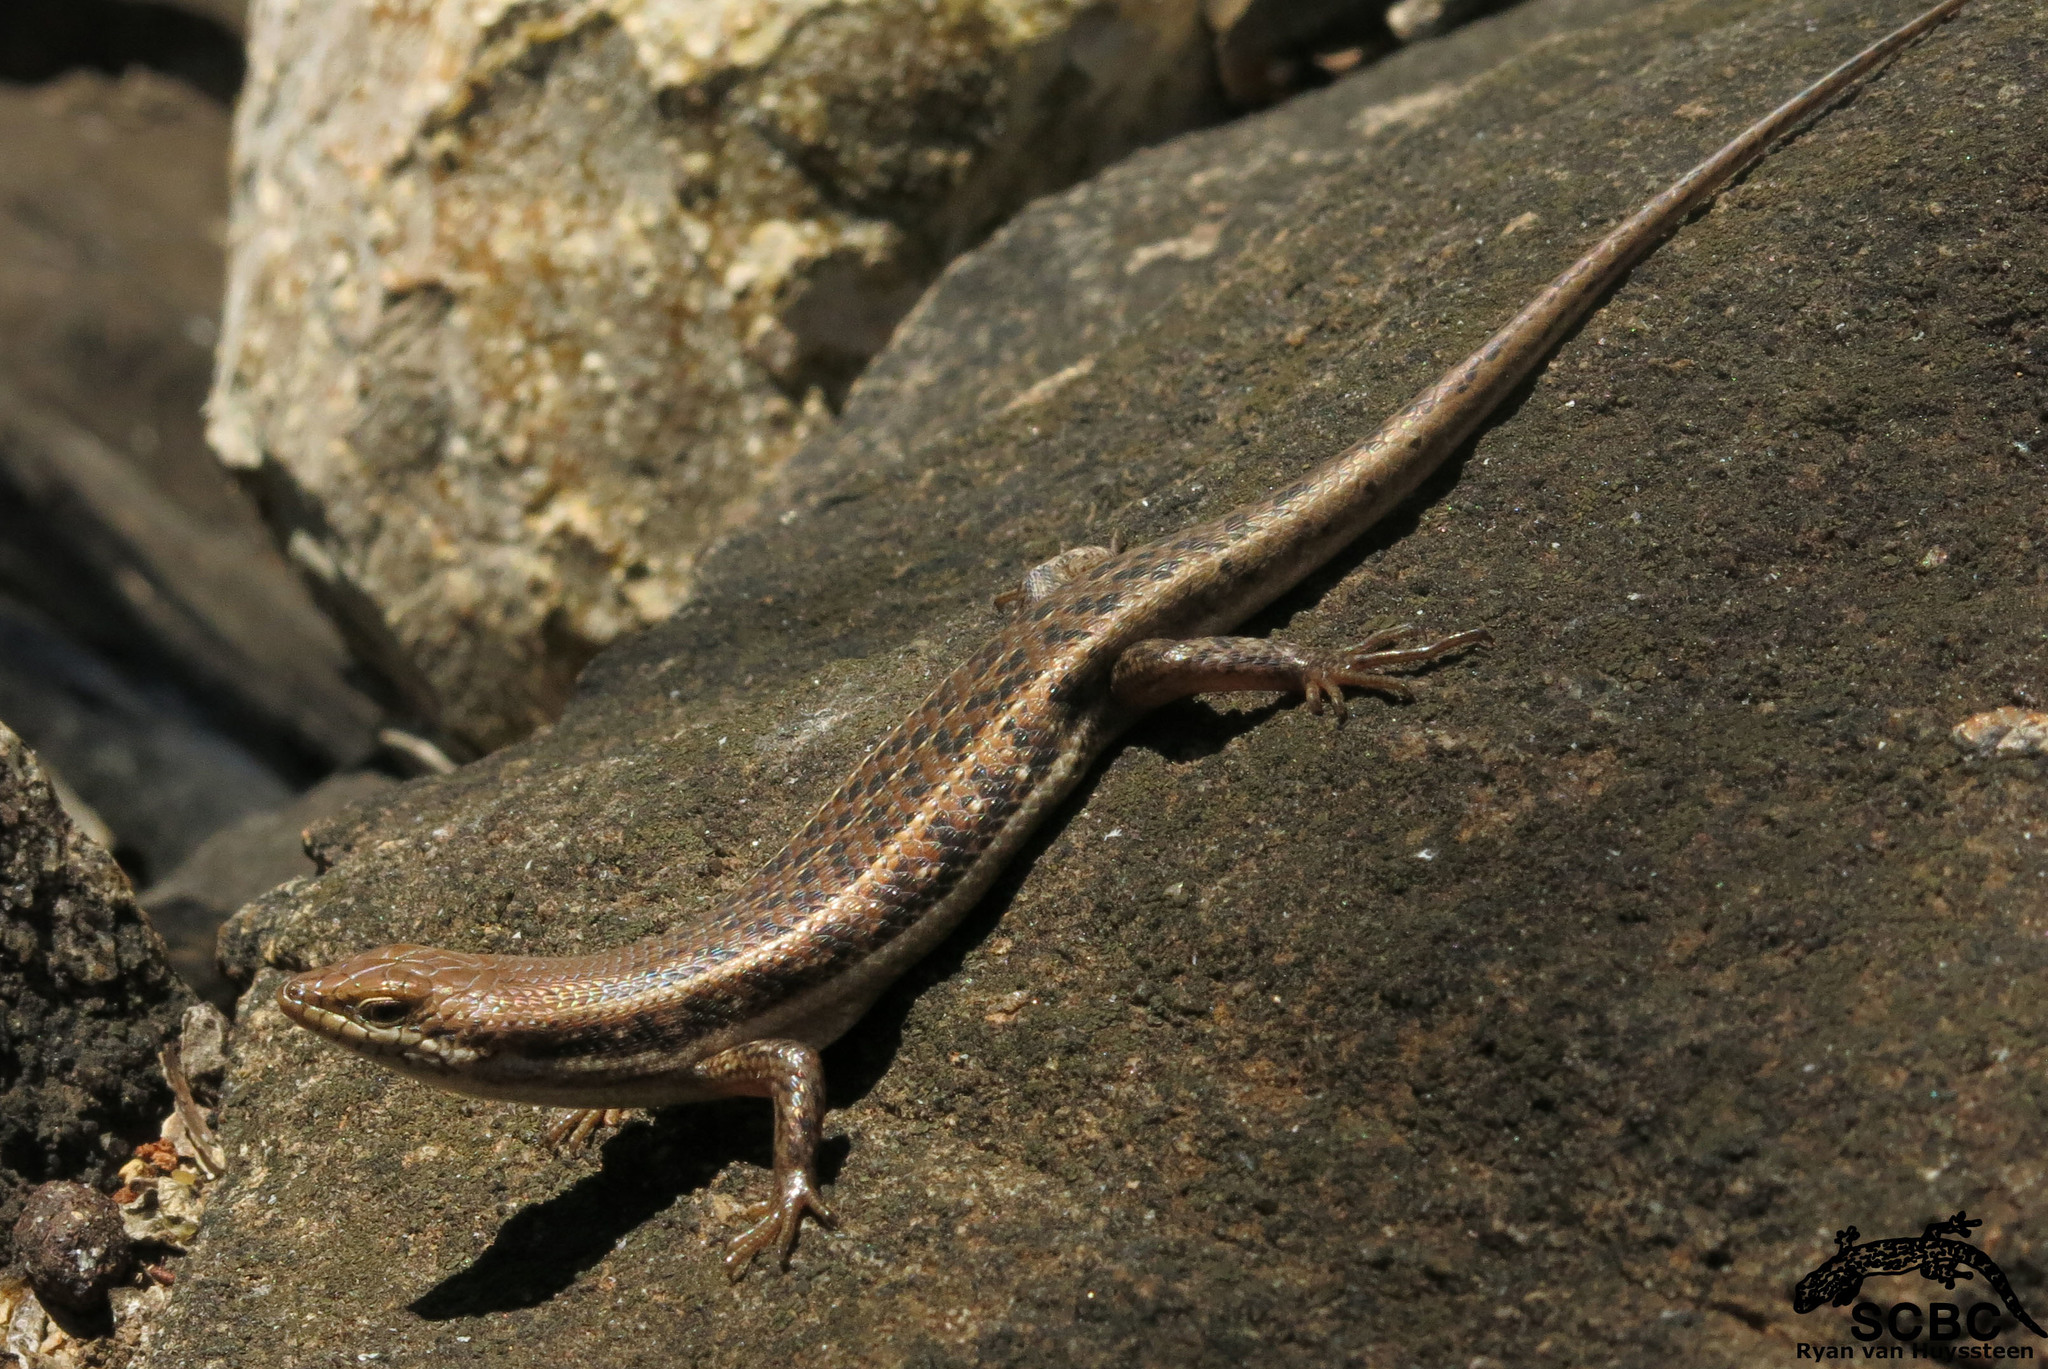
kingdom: Animalia
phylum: Chordata
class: Squamata
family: Scincidae
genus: Trachylepis
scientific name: Trachylepis damarana
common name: Damara skink
